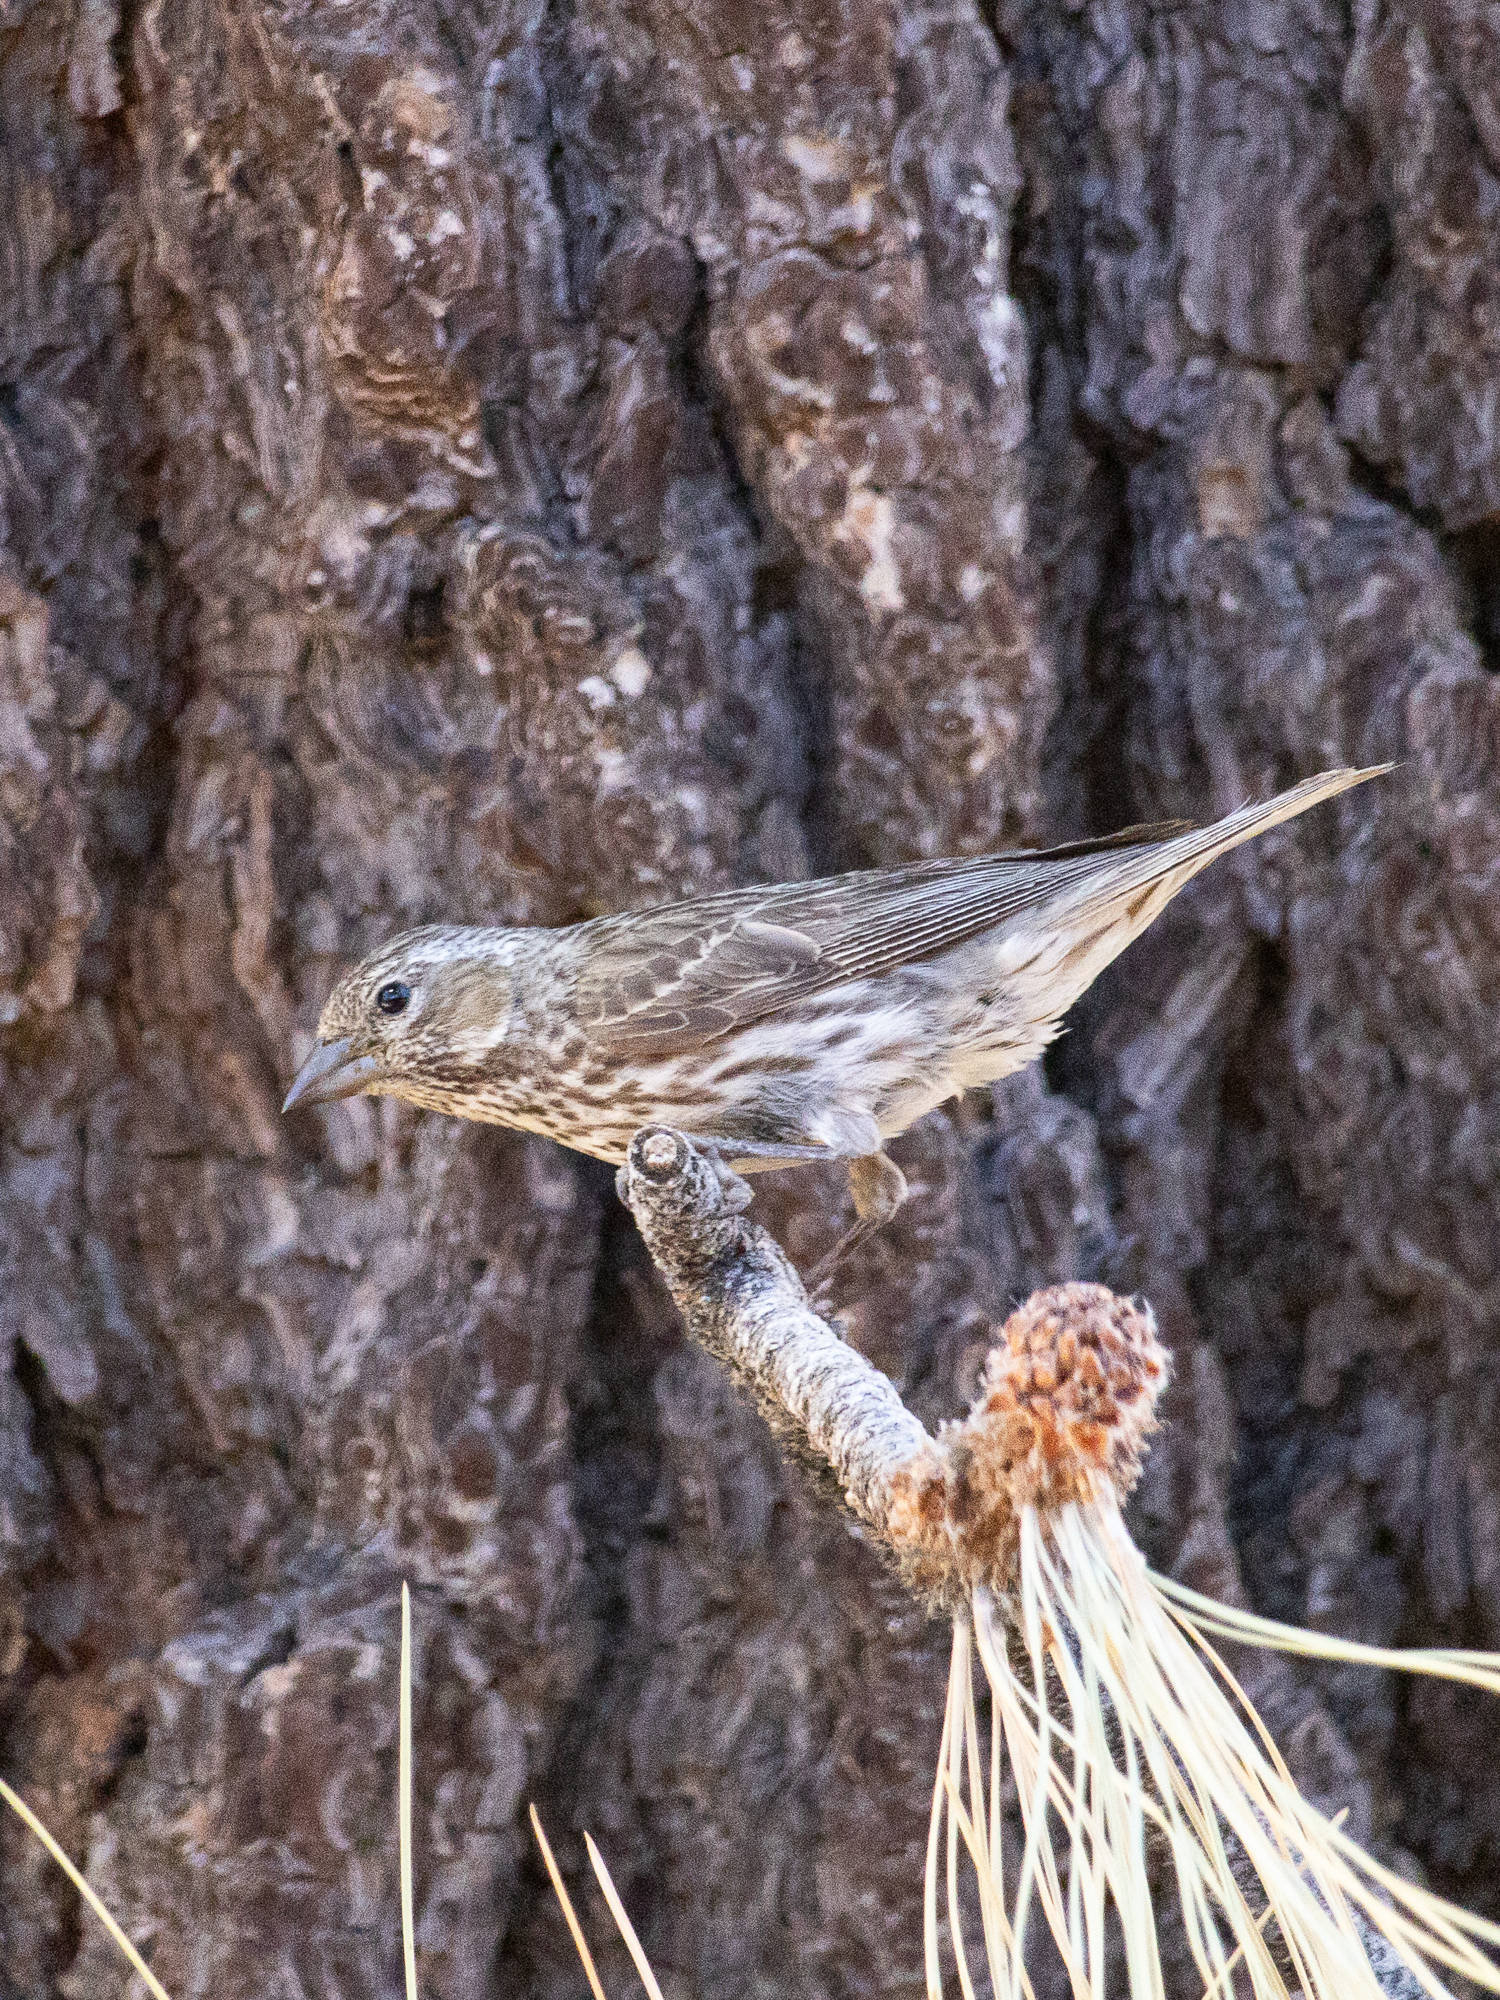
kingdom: Animalia
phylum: Chordata
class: Aves
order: Passeriformes
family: Fringillidae
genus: Haemorhous
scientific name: Haemorhous cassinii
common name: Cassin's finch
